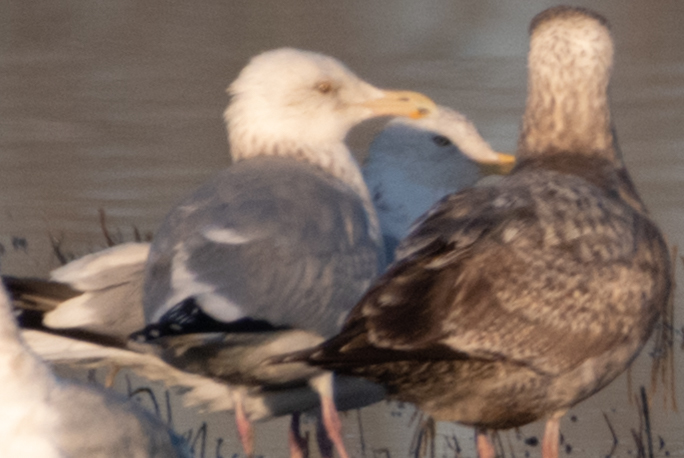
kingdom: Animalia
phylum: Chordata
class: Aves
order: Charadriiformes
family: Laridae
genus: Larus
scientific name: Larus argentatus
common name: Herring gull
